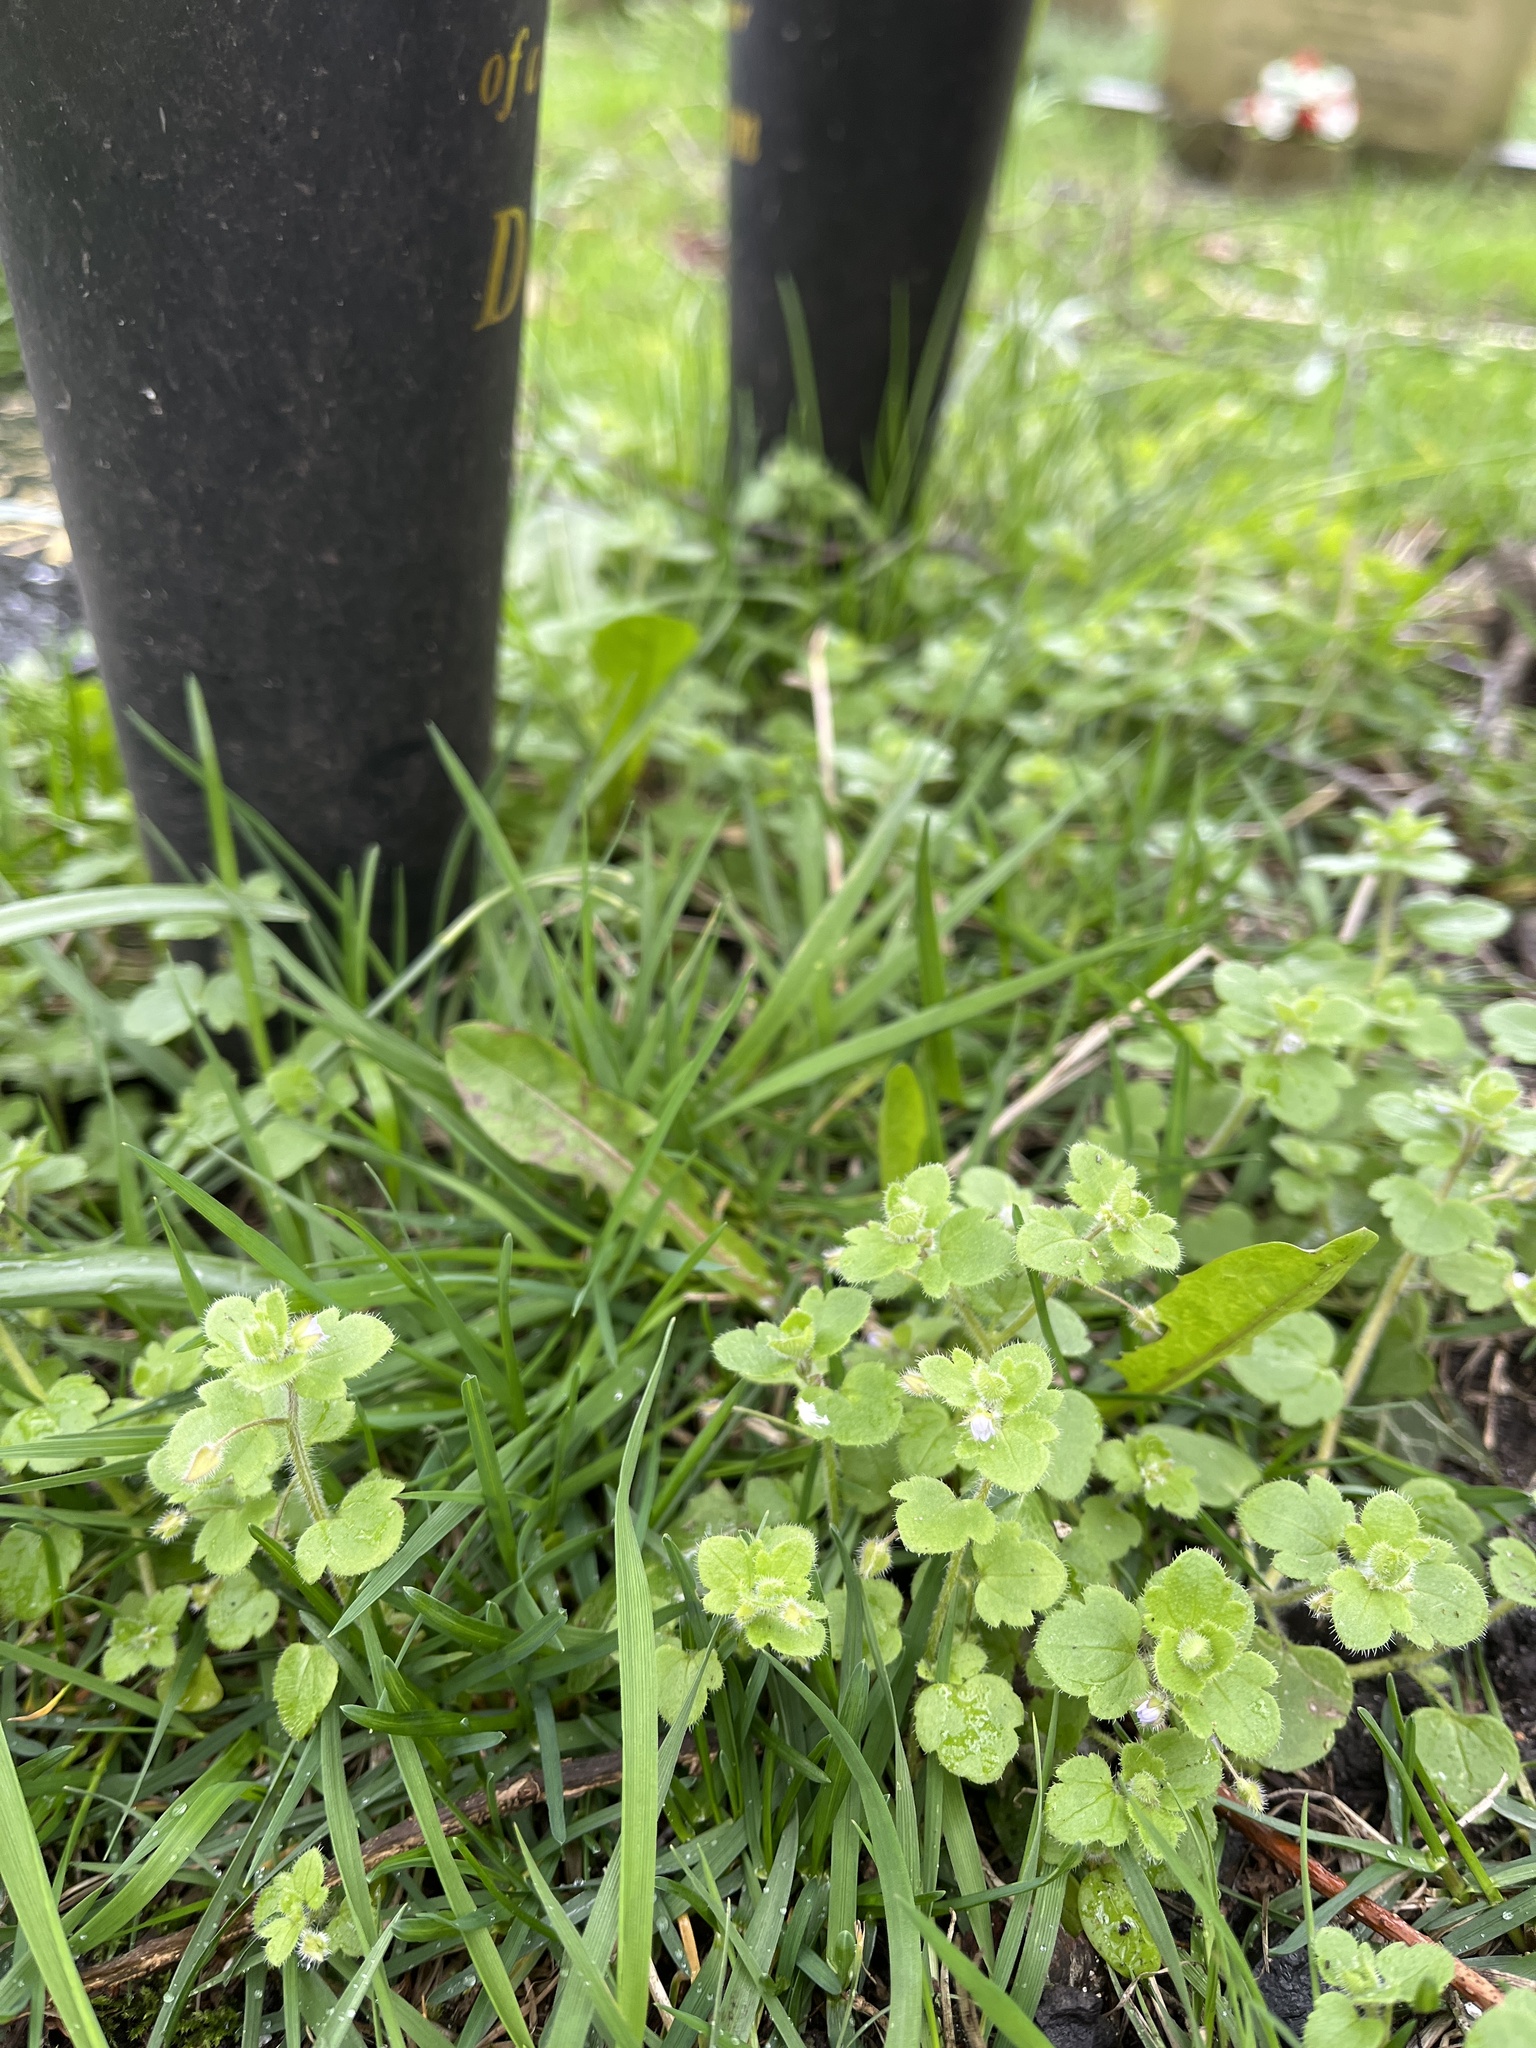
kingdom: Plantae
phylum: Tracheophyta
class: Magnoliopsida
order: Lamiales
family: Plantaginaceae
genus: Veronica
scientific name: Veronica sublobata
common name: False ivy-leaved speedwell
